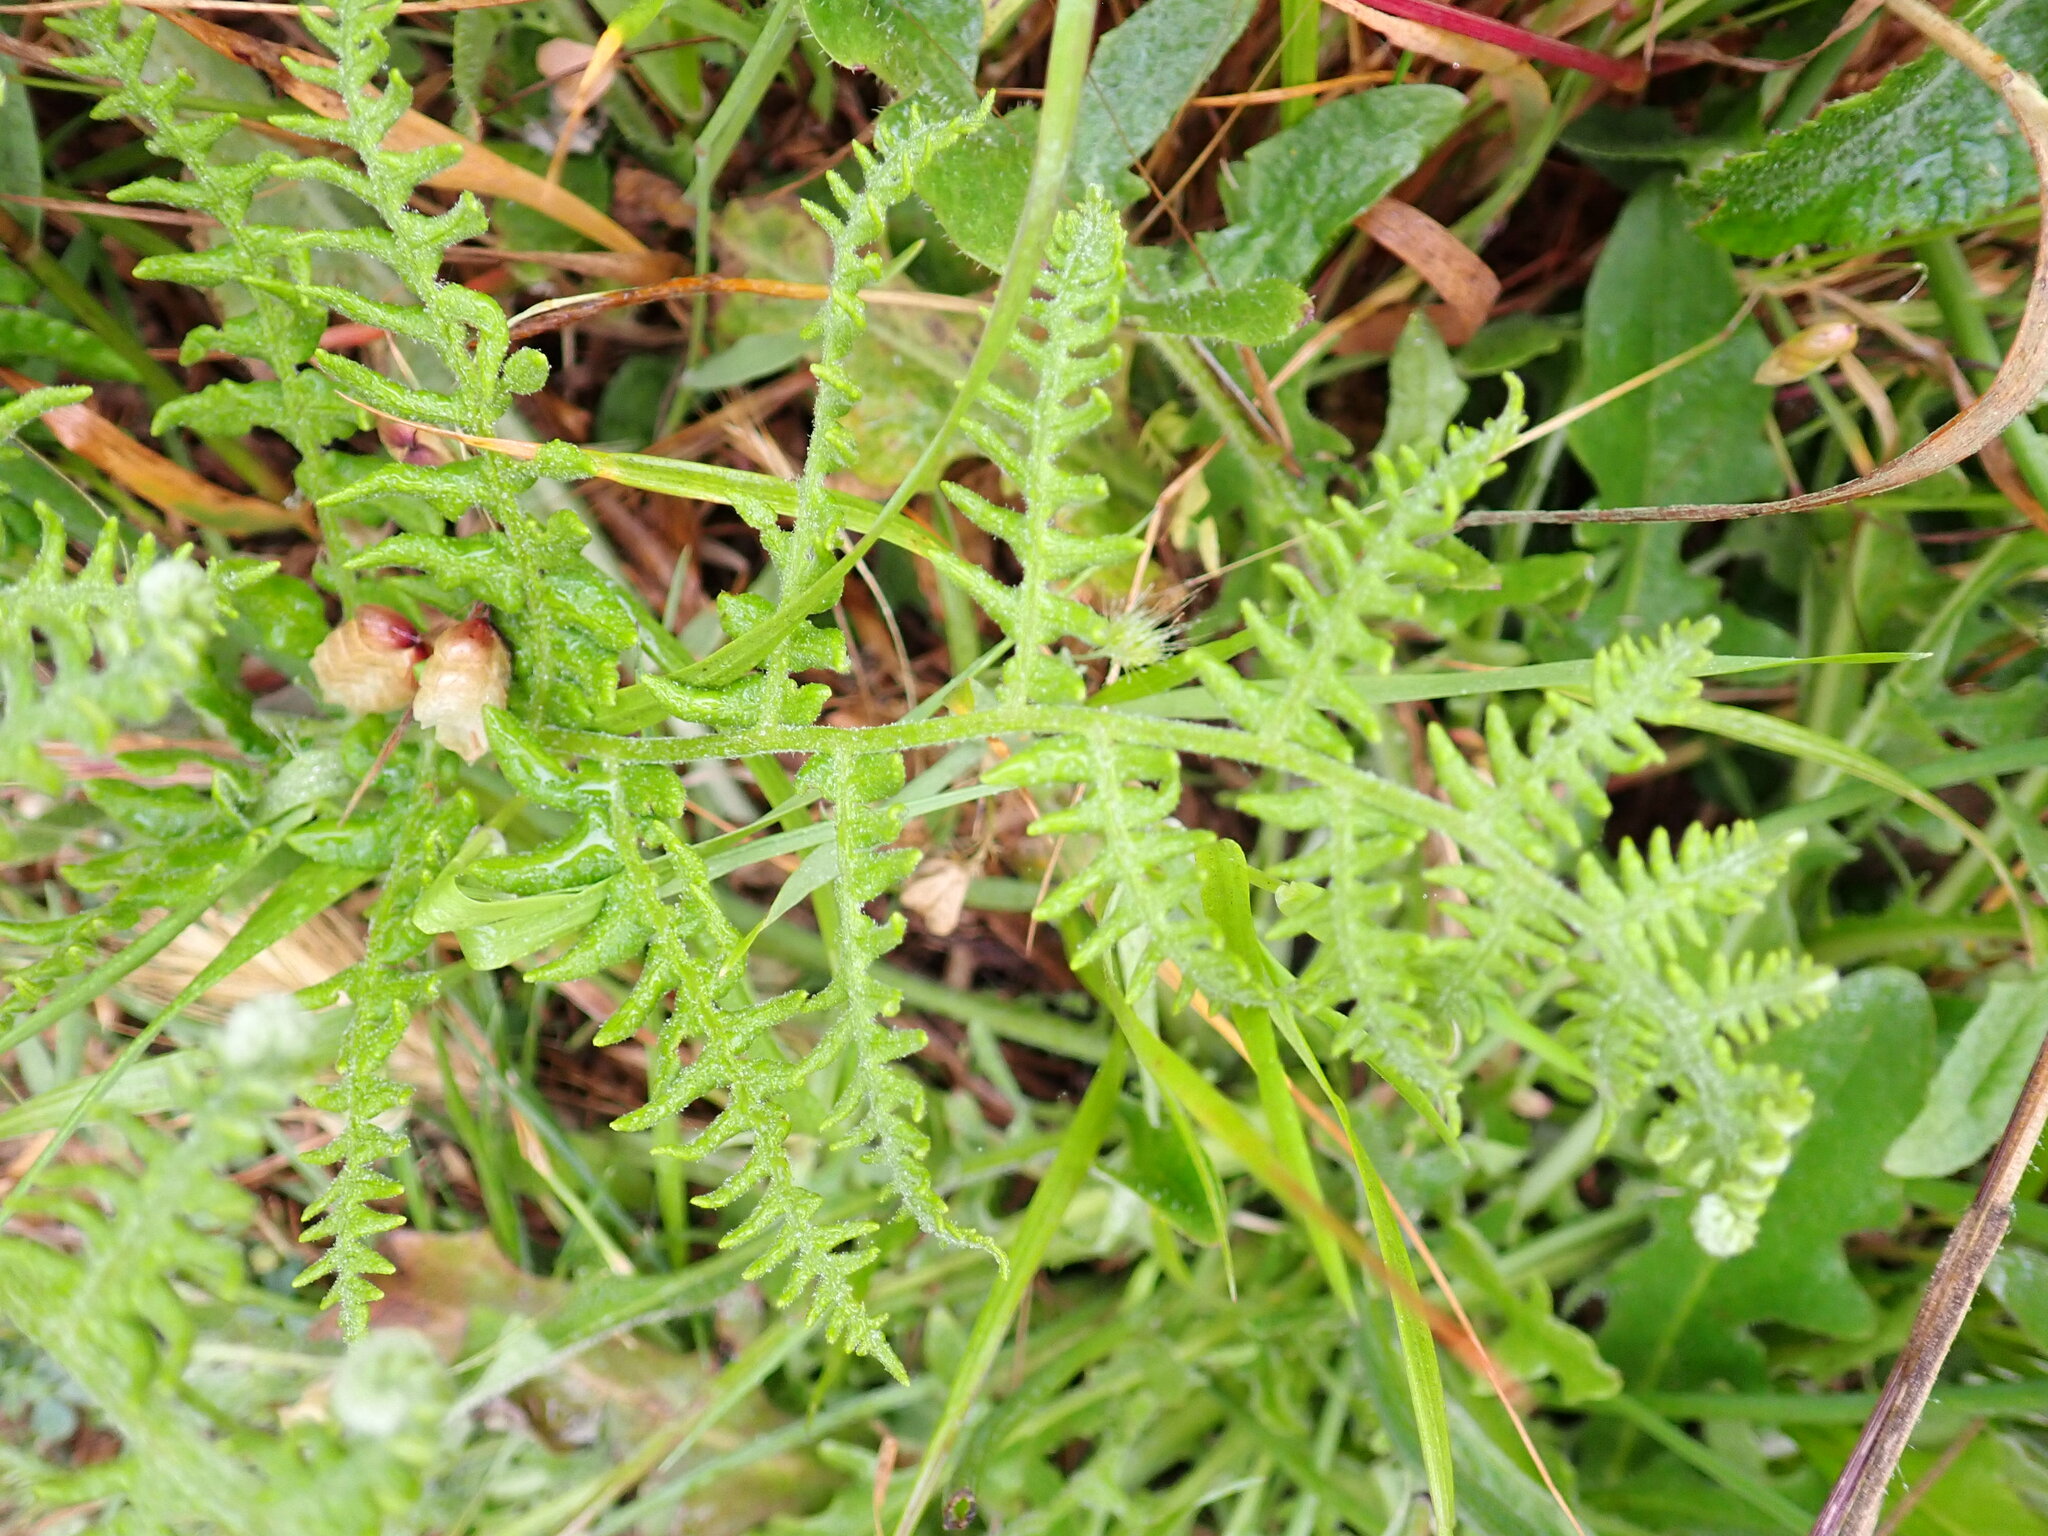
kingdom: Plantae
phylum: Tracheophyta
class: Polypodiopsida
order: Polypodiales
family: Dennstaedtiaceae
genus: Pteridium
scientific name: Pteridium aquilinum
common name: Bracken
